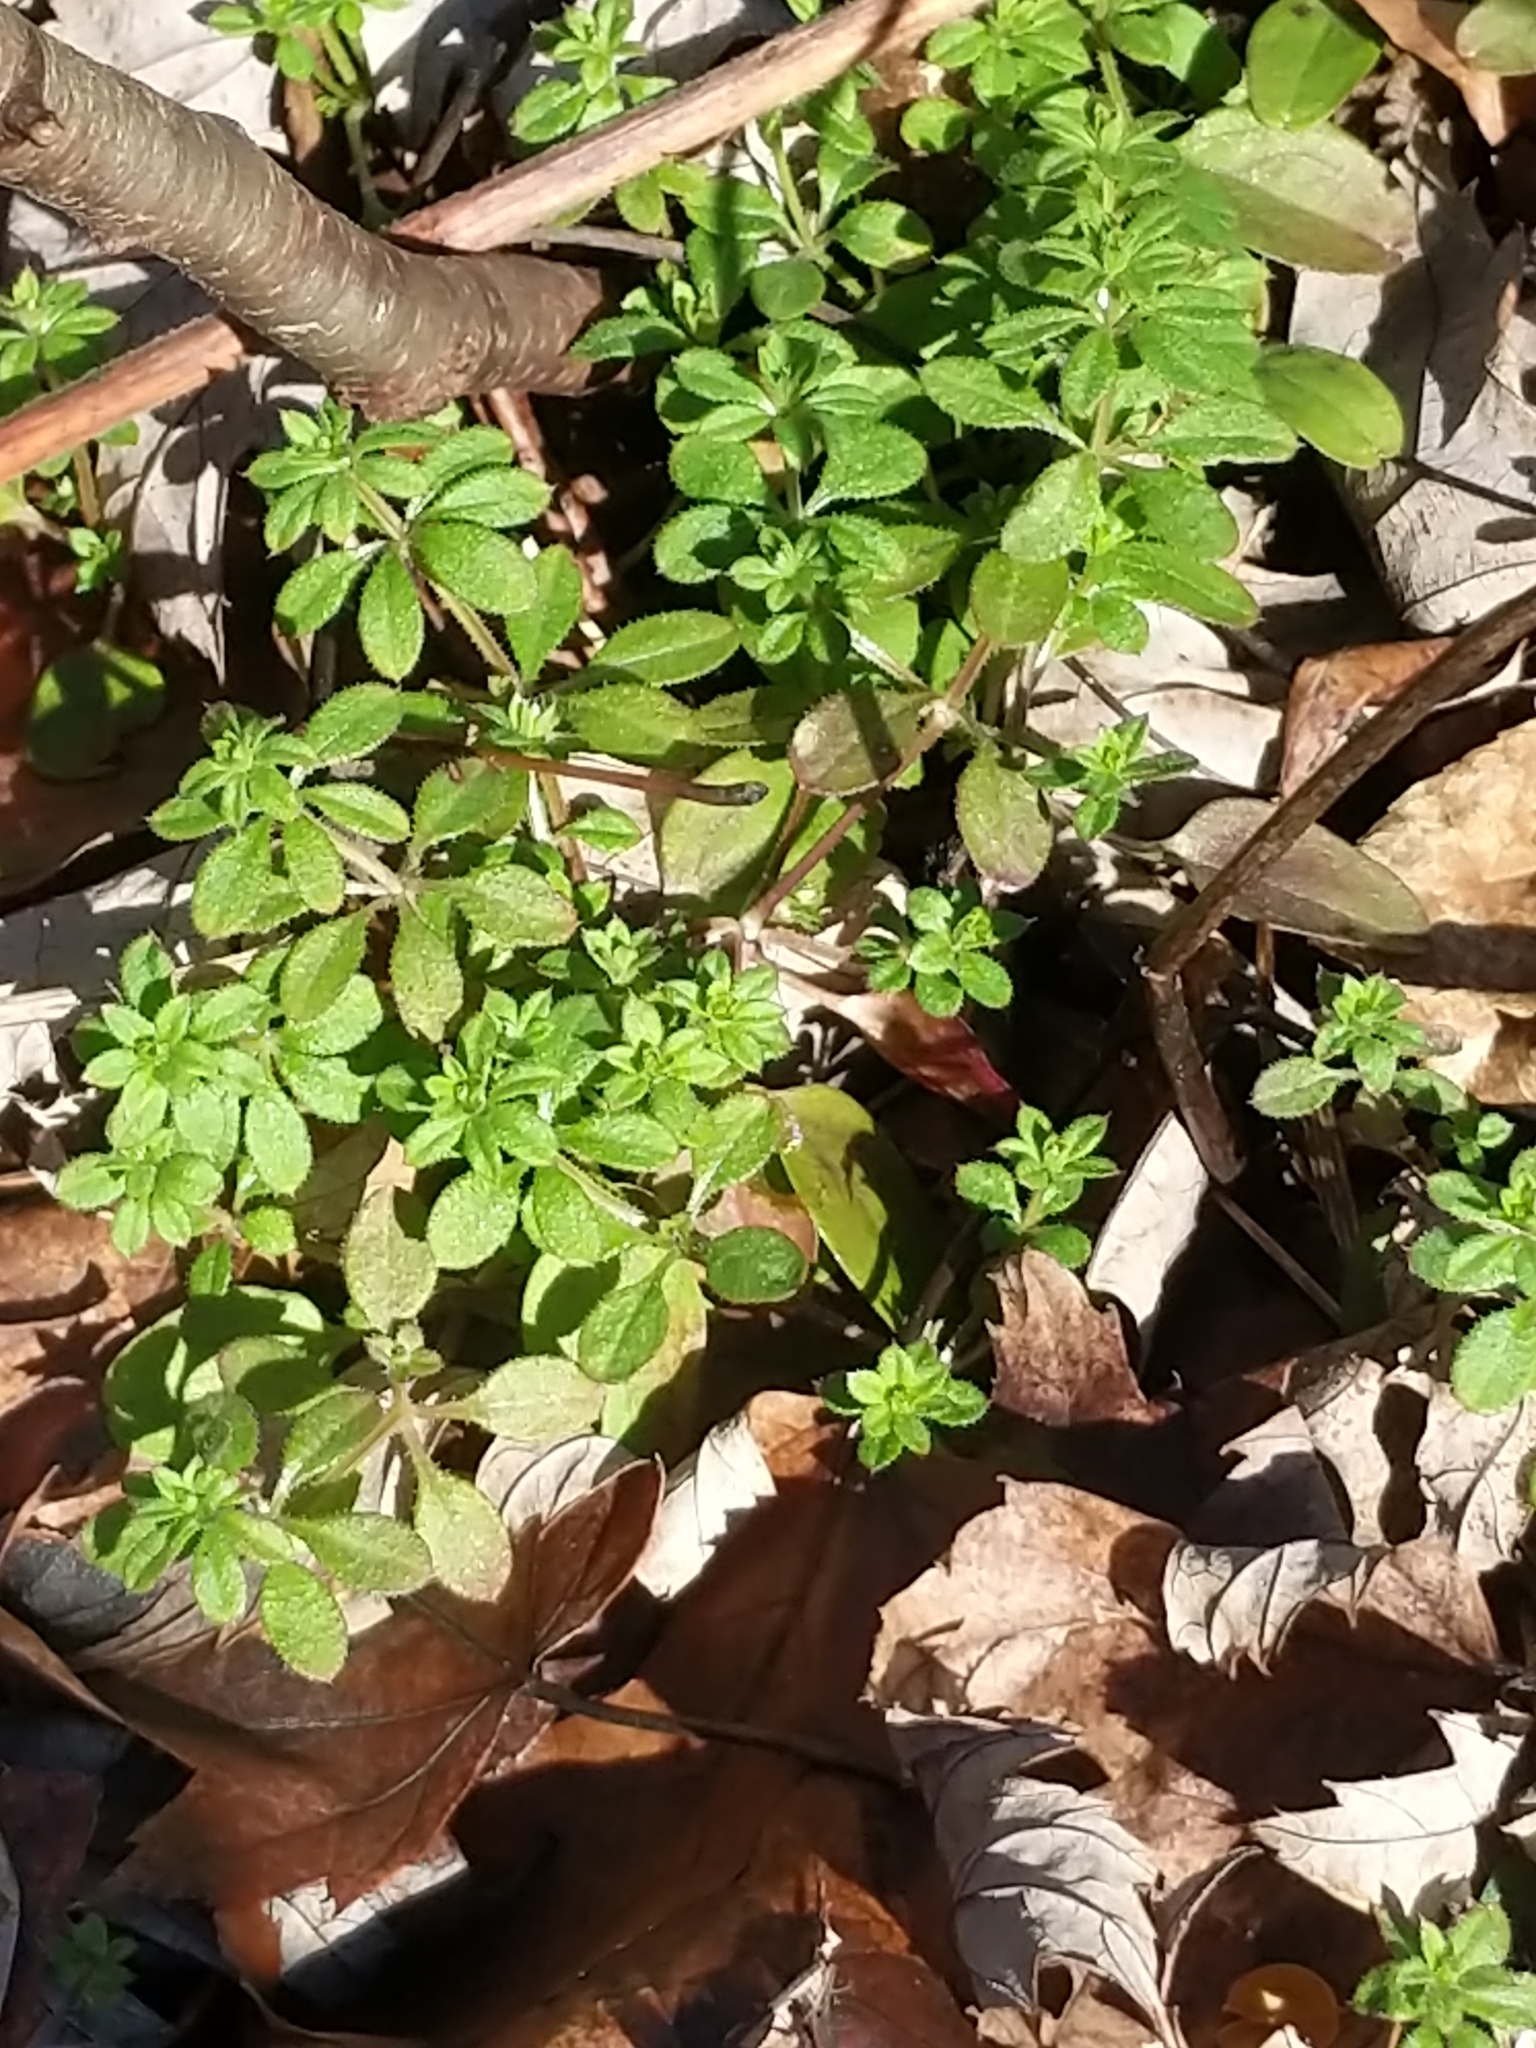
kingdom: Plantae
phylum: Tracheophyta
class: Magnoliopsida
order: Gentianales
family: Rubiaceae
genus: Galium
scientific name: Galium aparine
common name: Cleavers
